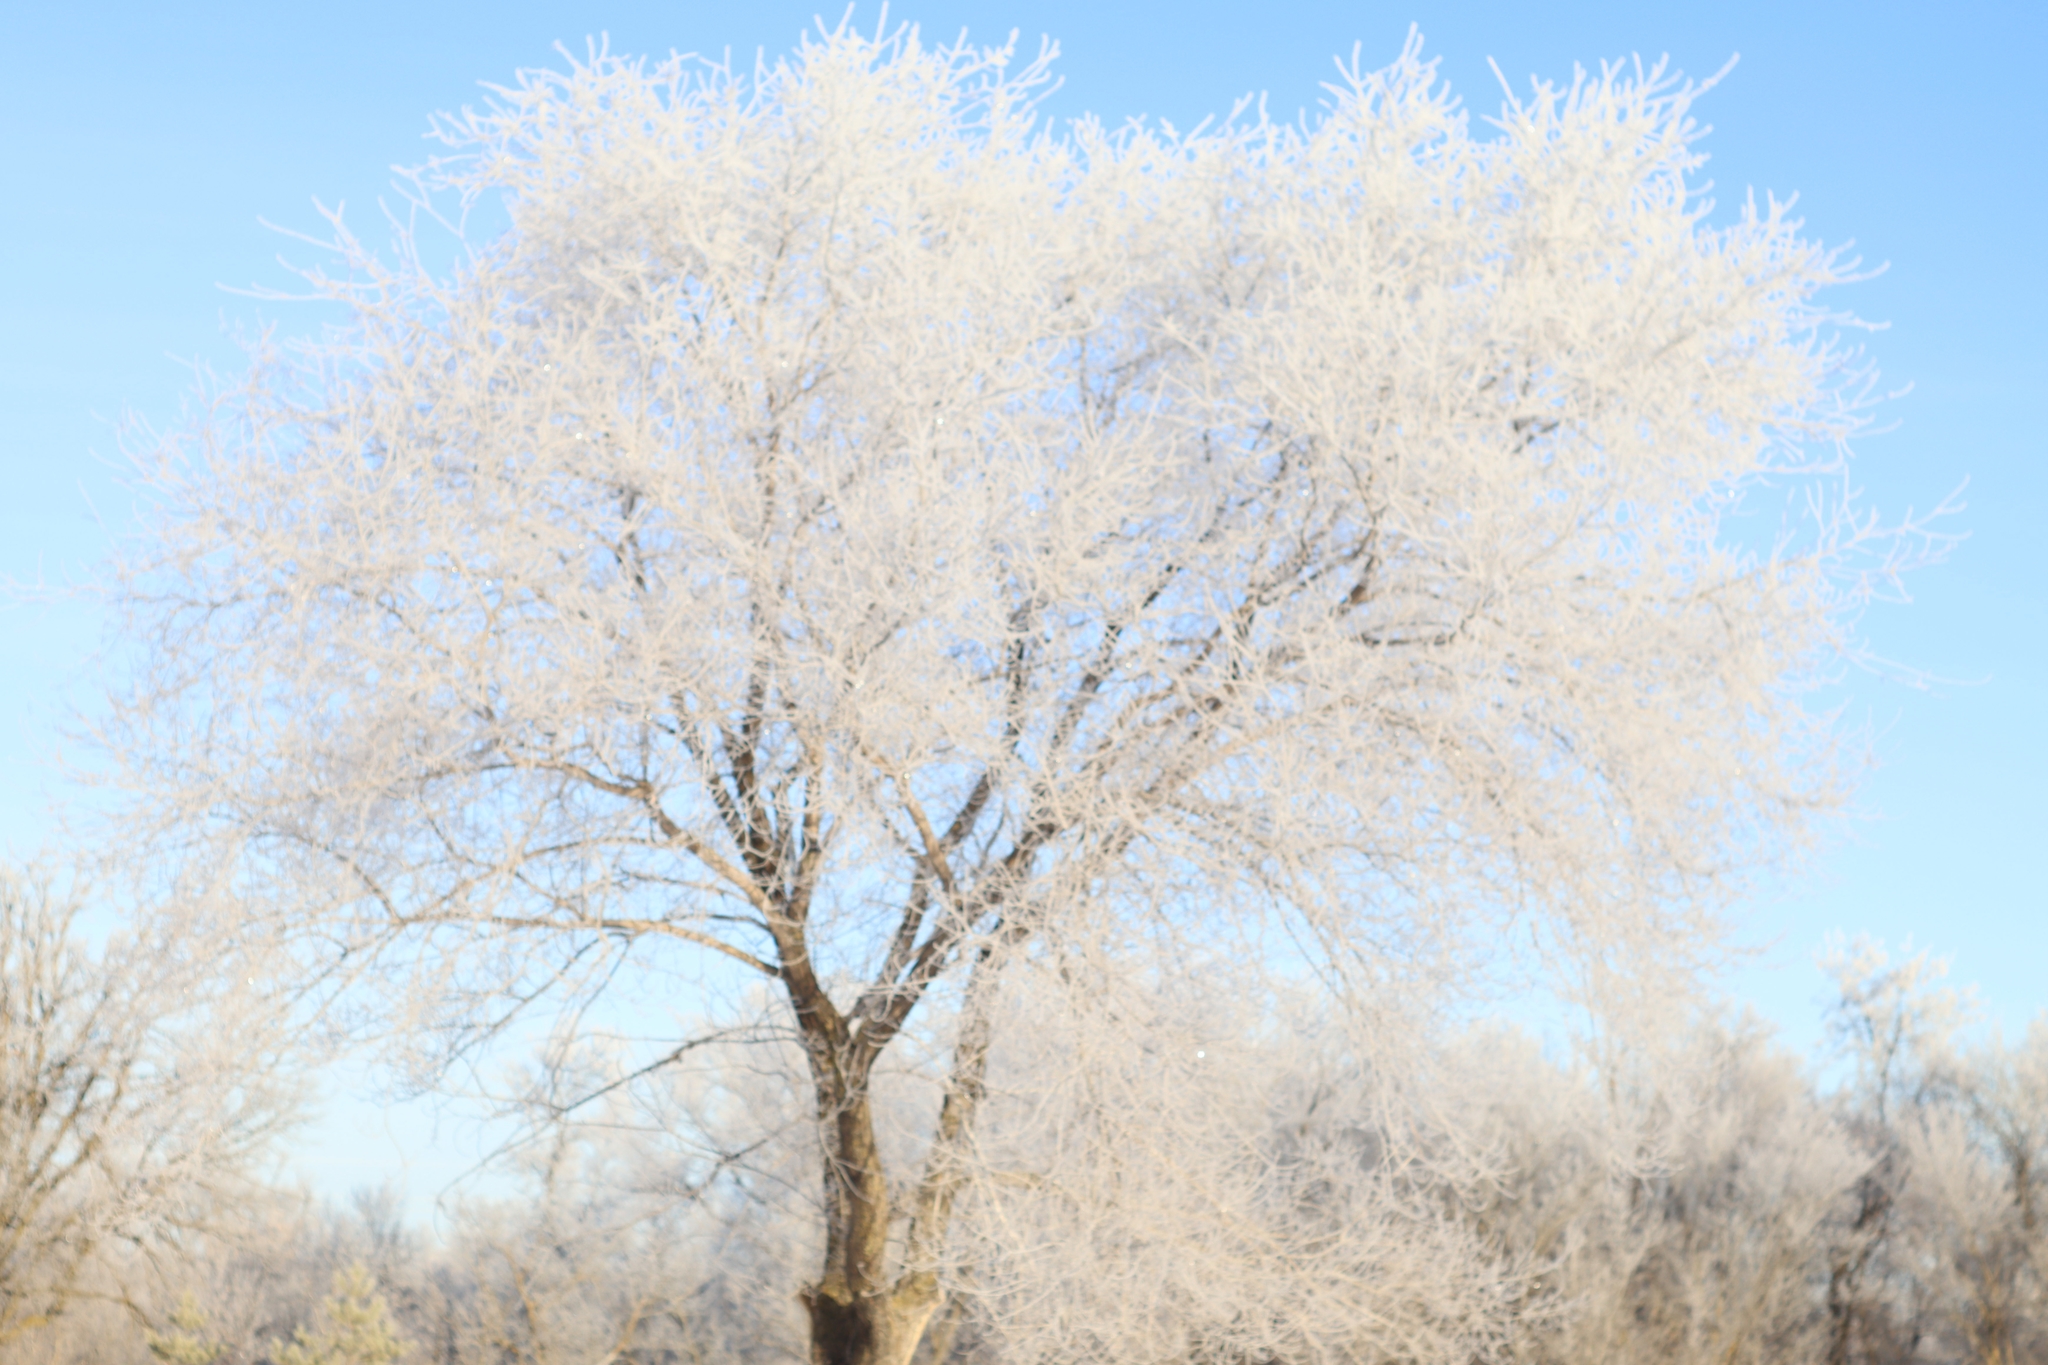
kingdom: Plantae
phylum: Tracheophyta
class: Magnoliopsida
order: Sapindales
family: Sapindaceae
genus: Acer
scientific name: Acer negundo
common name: Ashleaf maple
